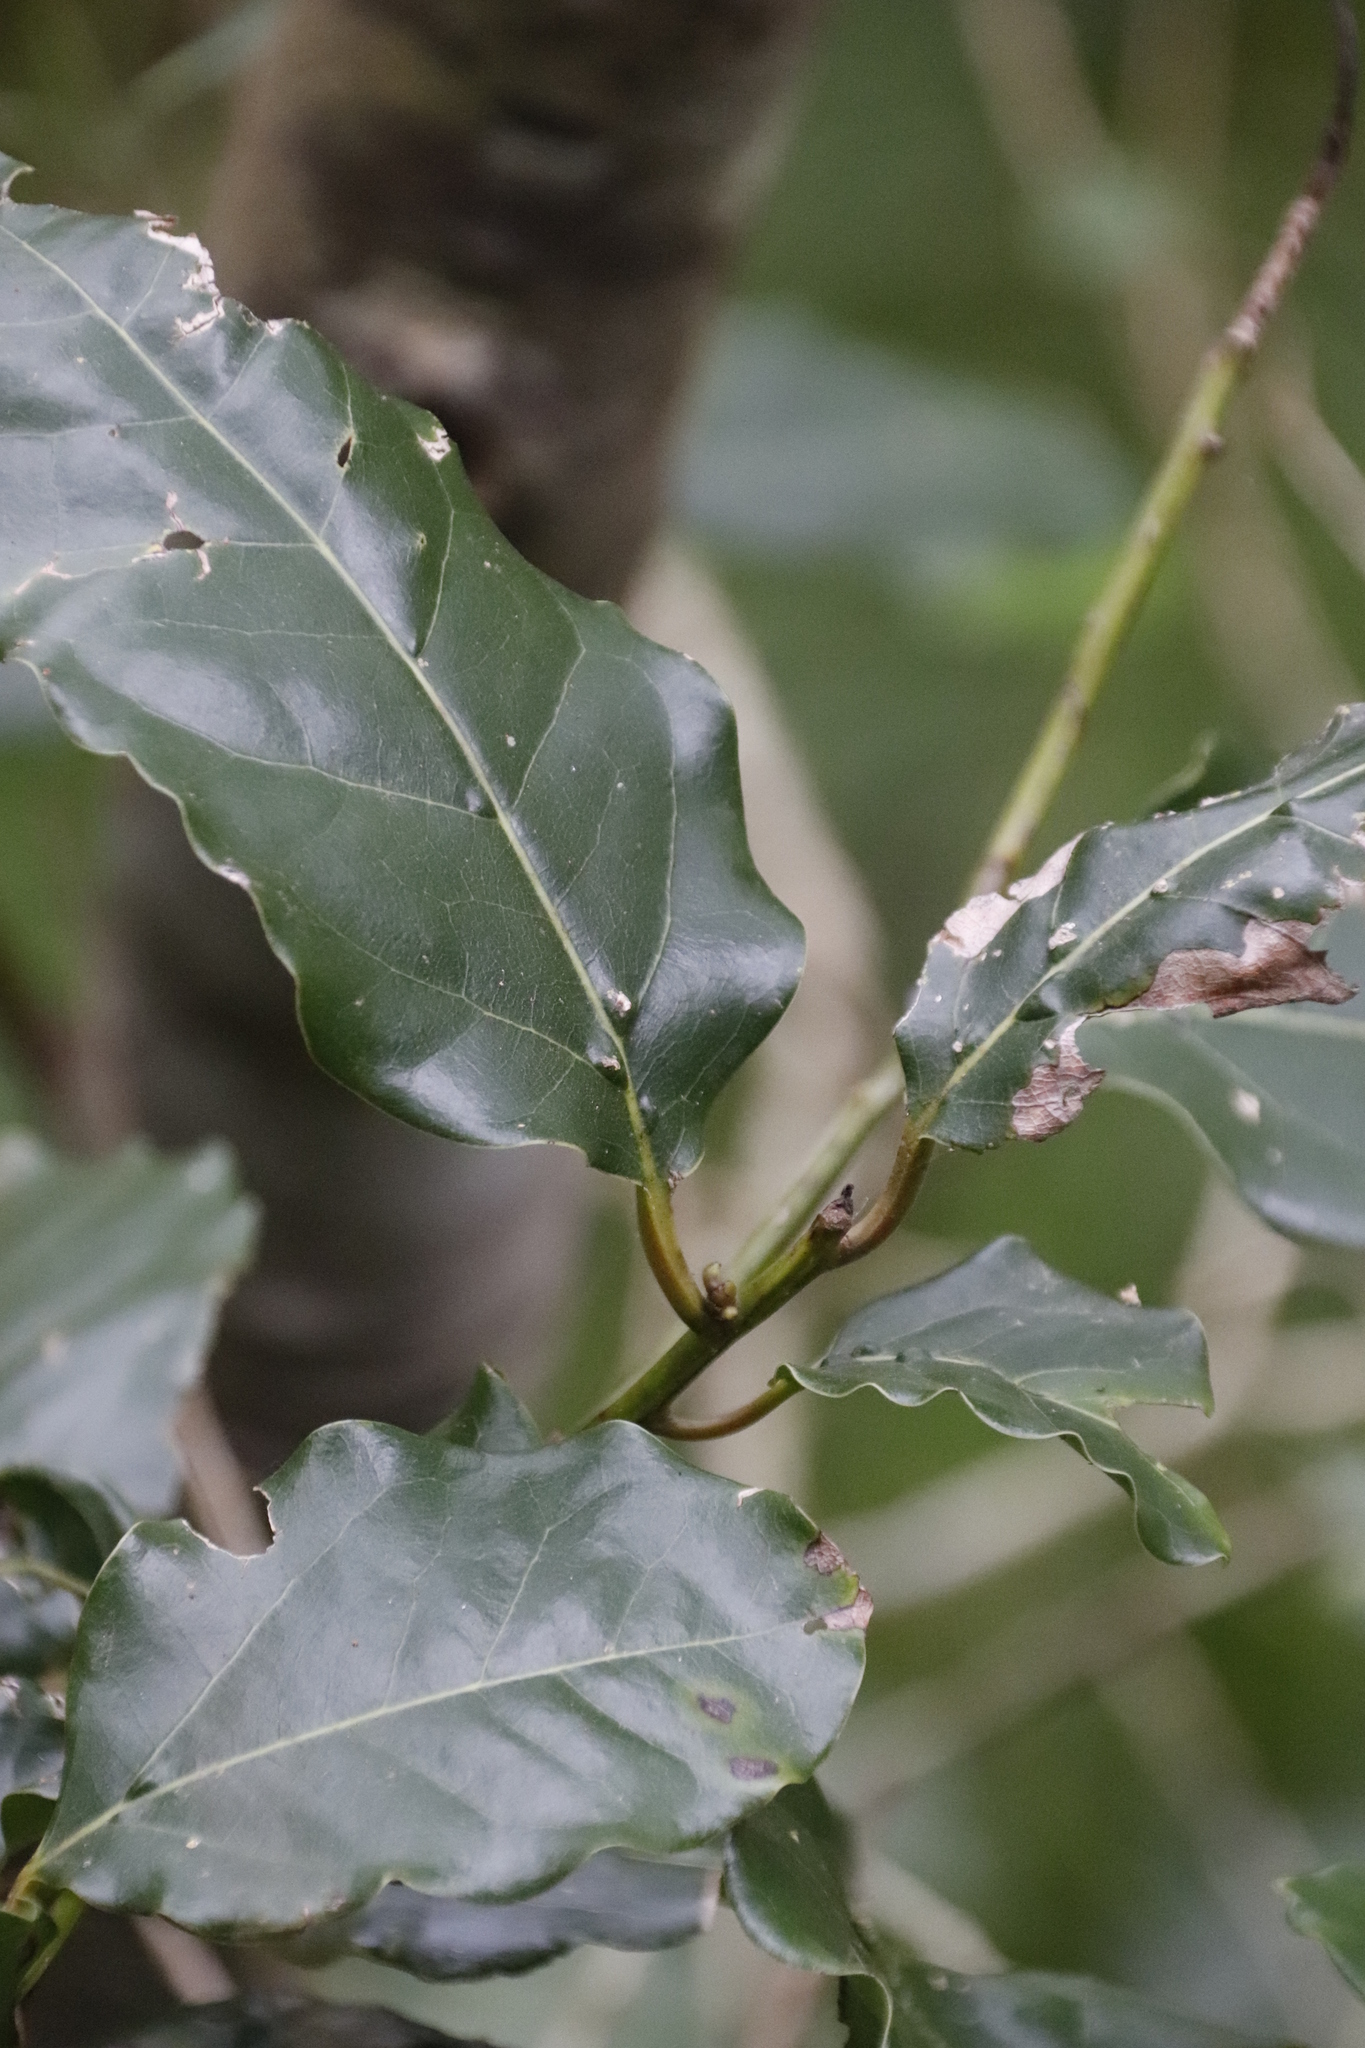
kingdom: Plantae
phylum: Tracheophyta
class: Magnoliopsida
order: Laurales
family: Lauraceae
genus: Ocotea
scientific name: Ocotea bullata
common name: Black stinkwood
